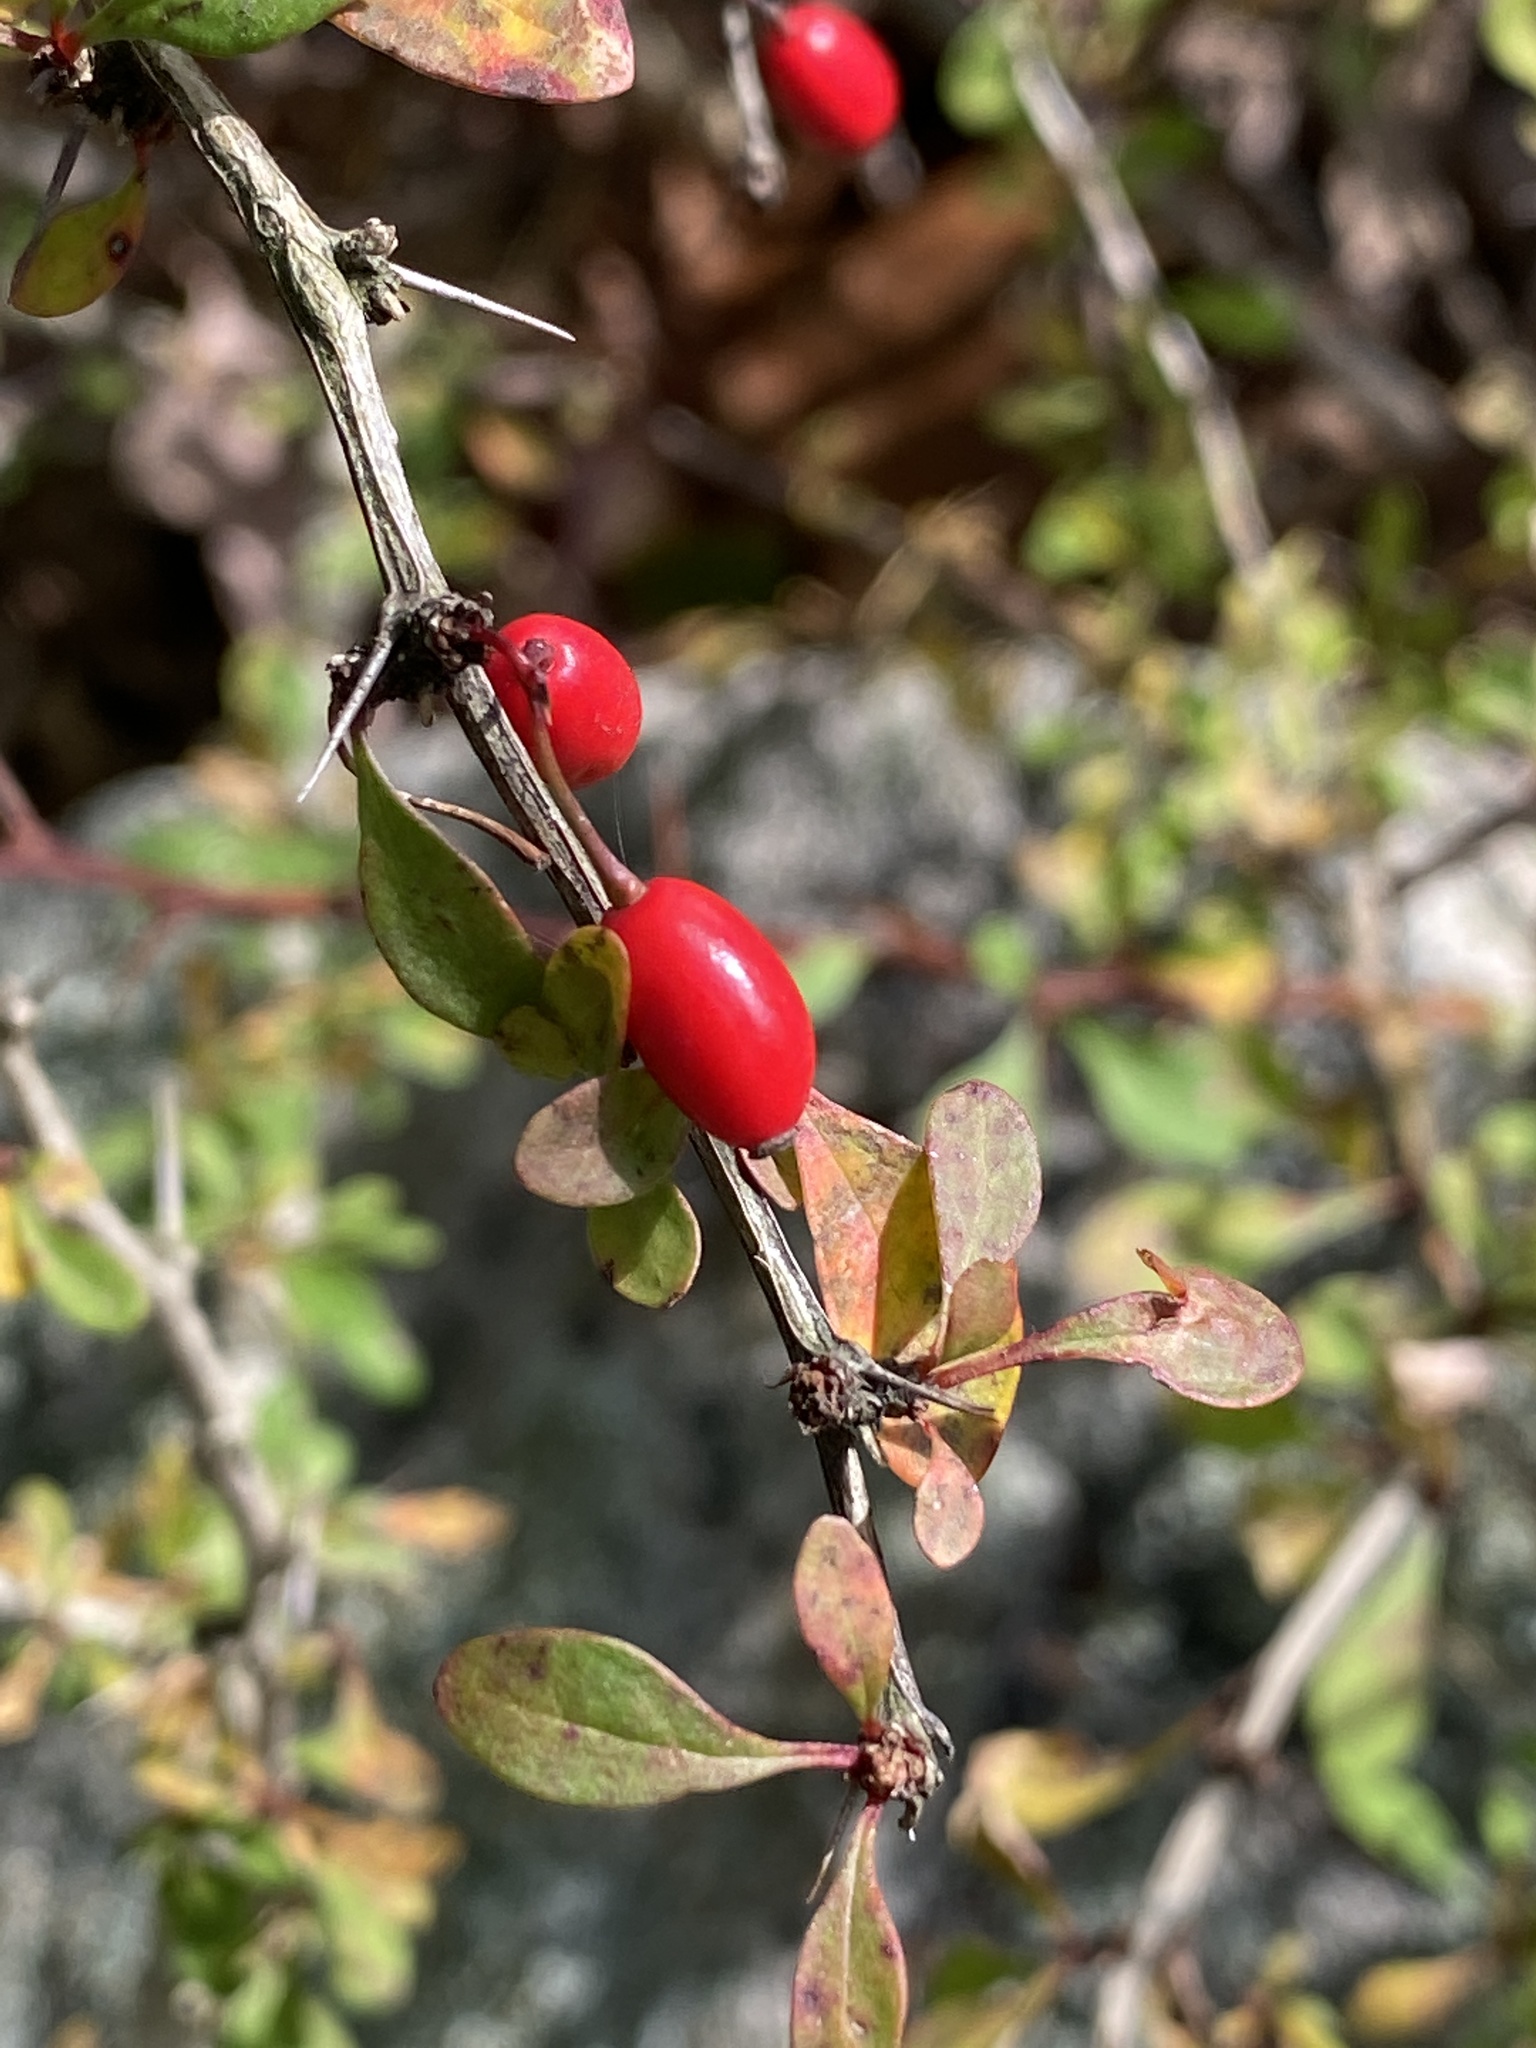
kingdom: Plantae
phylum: Tracheophyta
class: Magnoliopsida
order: Ranunculales
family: Berberidaceae
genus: Berberis
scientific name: Berberis thunbergii
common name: Japanese barberry
